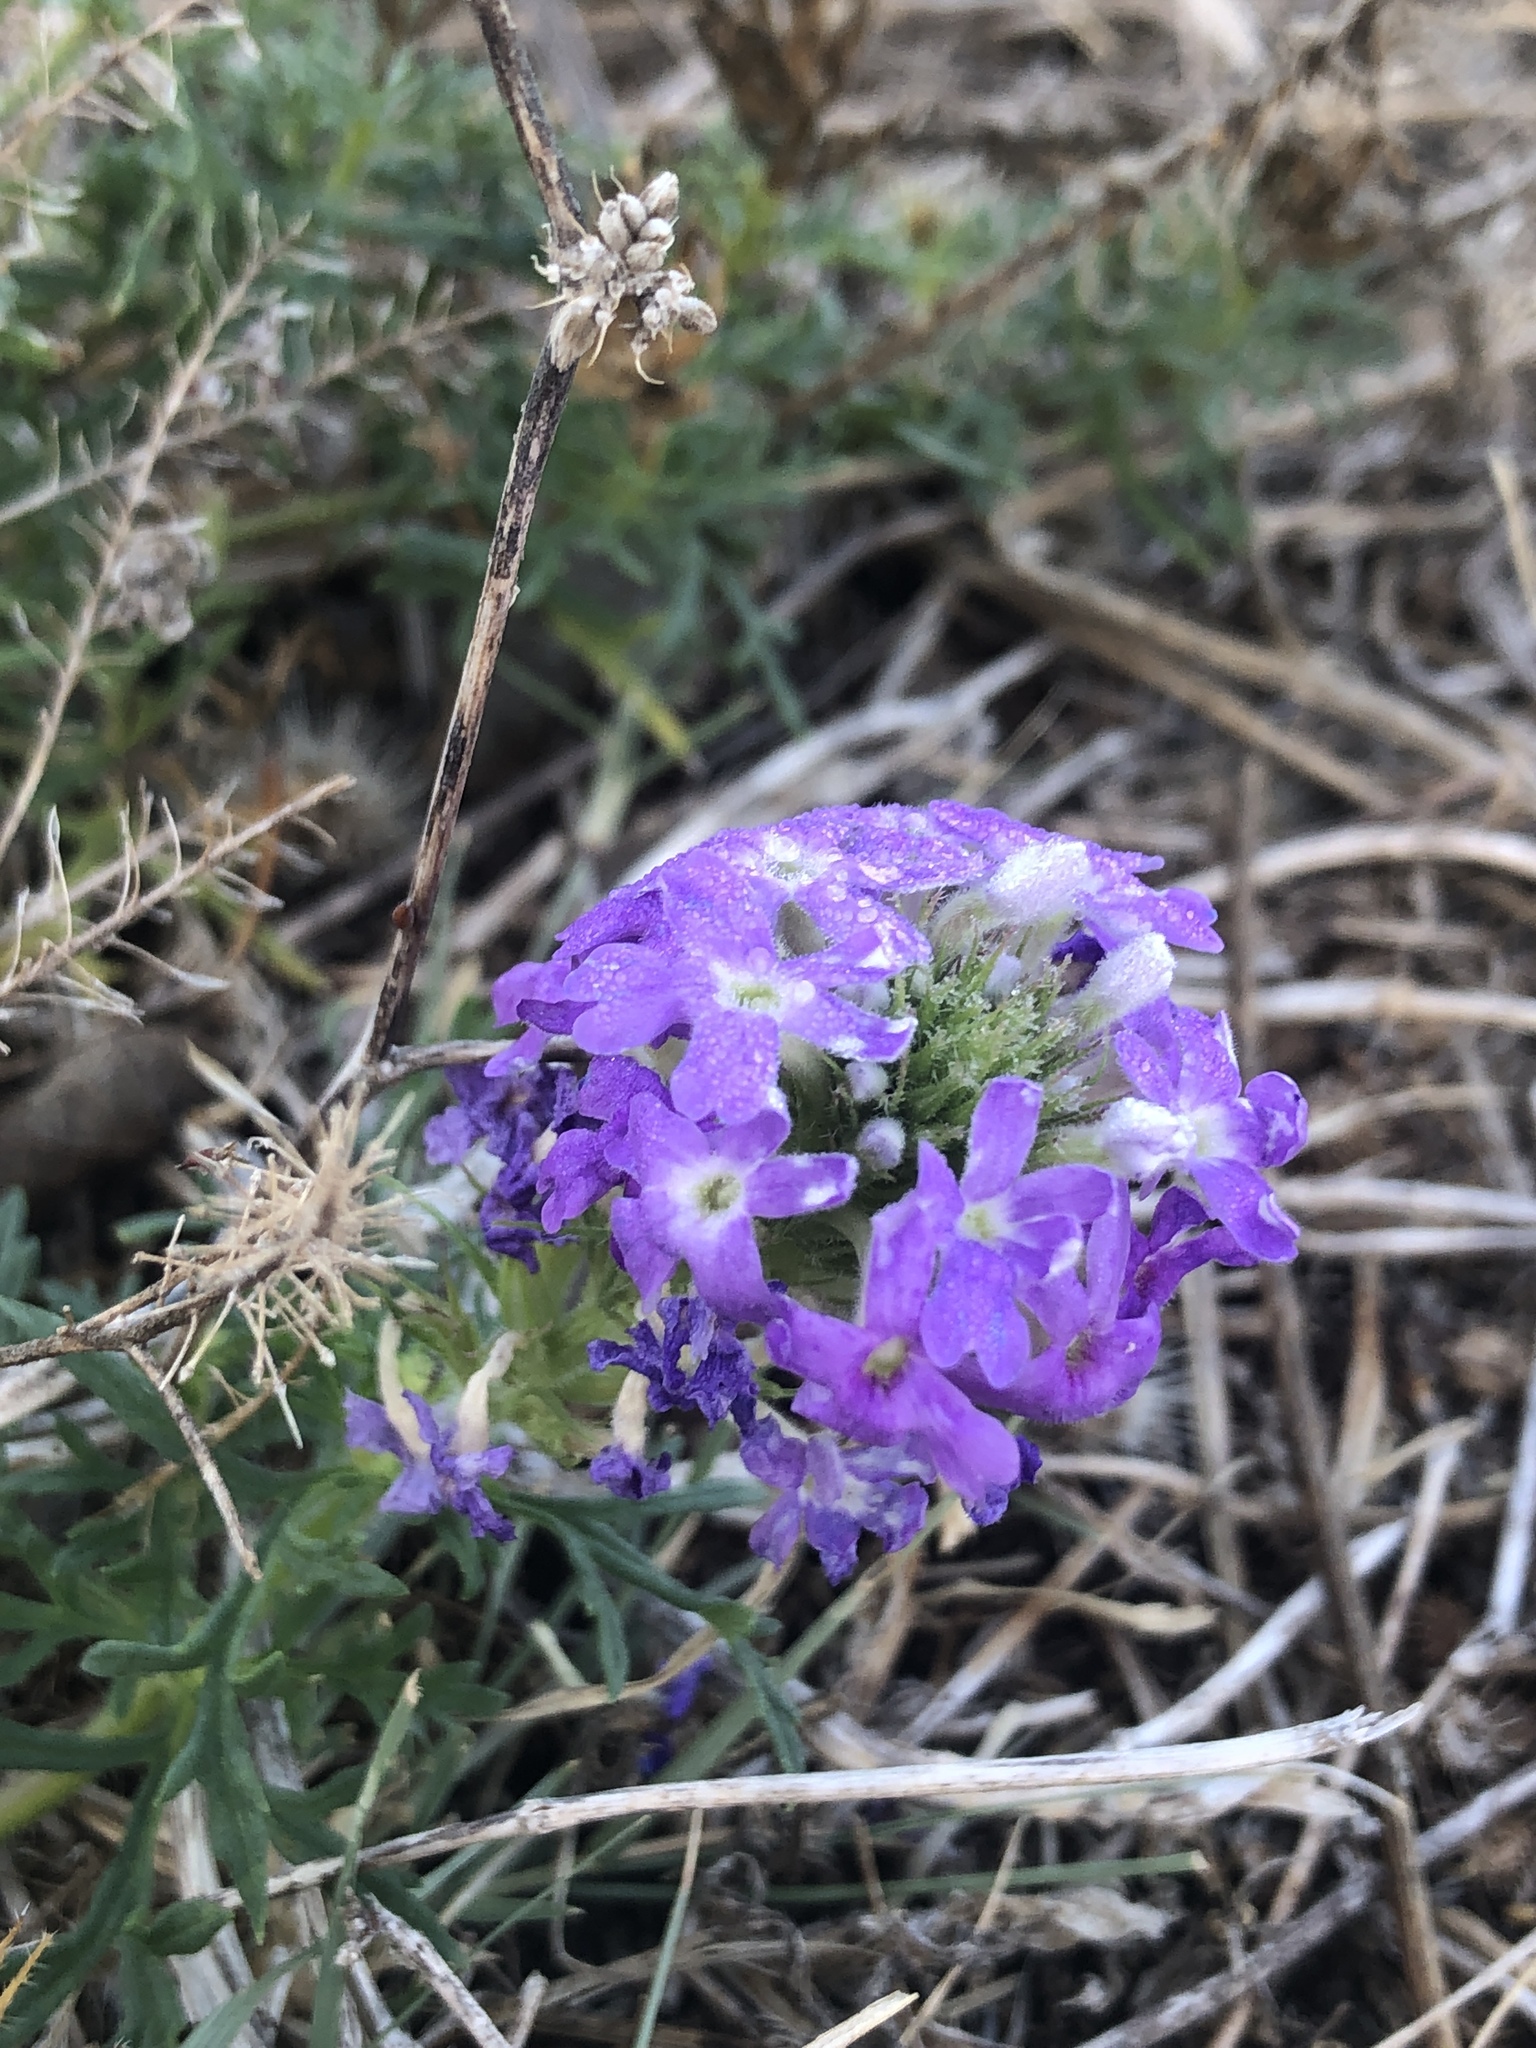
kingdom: Plantae
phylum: Tracheophyta
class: Magnoliopsida
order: Lamiales
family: Verbenaceae
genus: Verbena
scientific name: Verbena bipinnatifida
